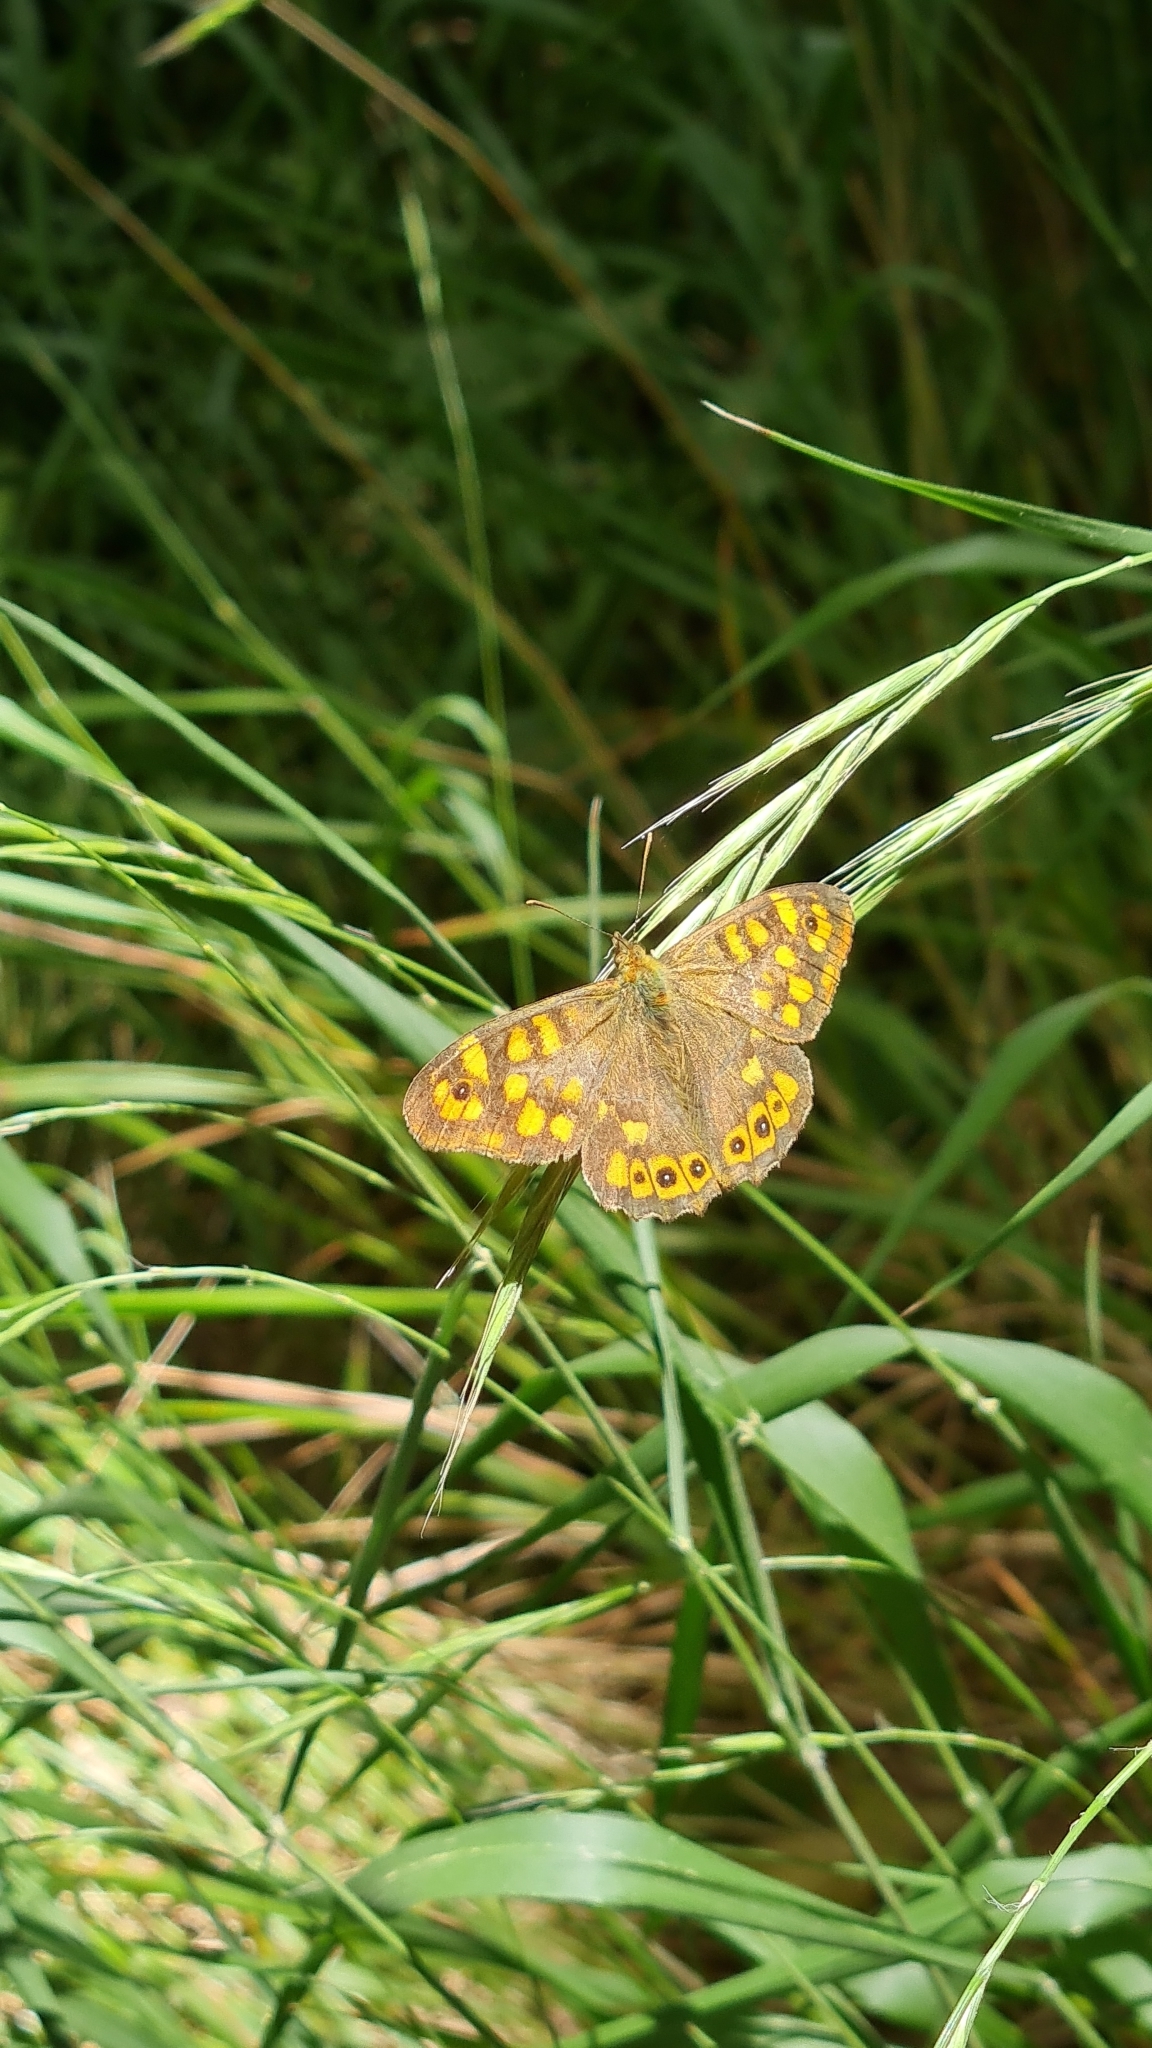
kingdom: Animalia
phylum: Arthropoda
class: Insecta
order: Lepidoptera
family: Nymphalidae
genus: Pararge
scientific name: Pararge aegeria
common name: Speckled wood
